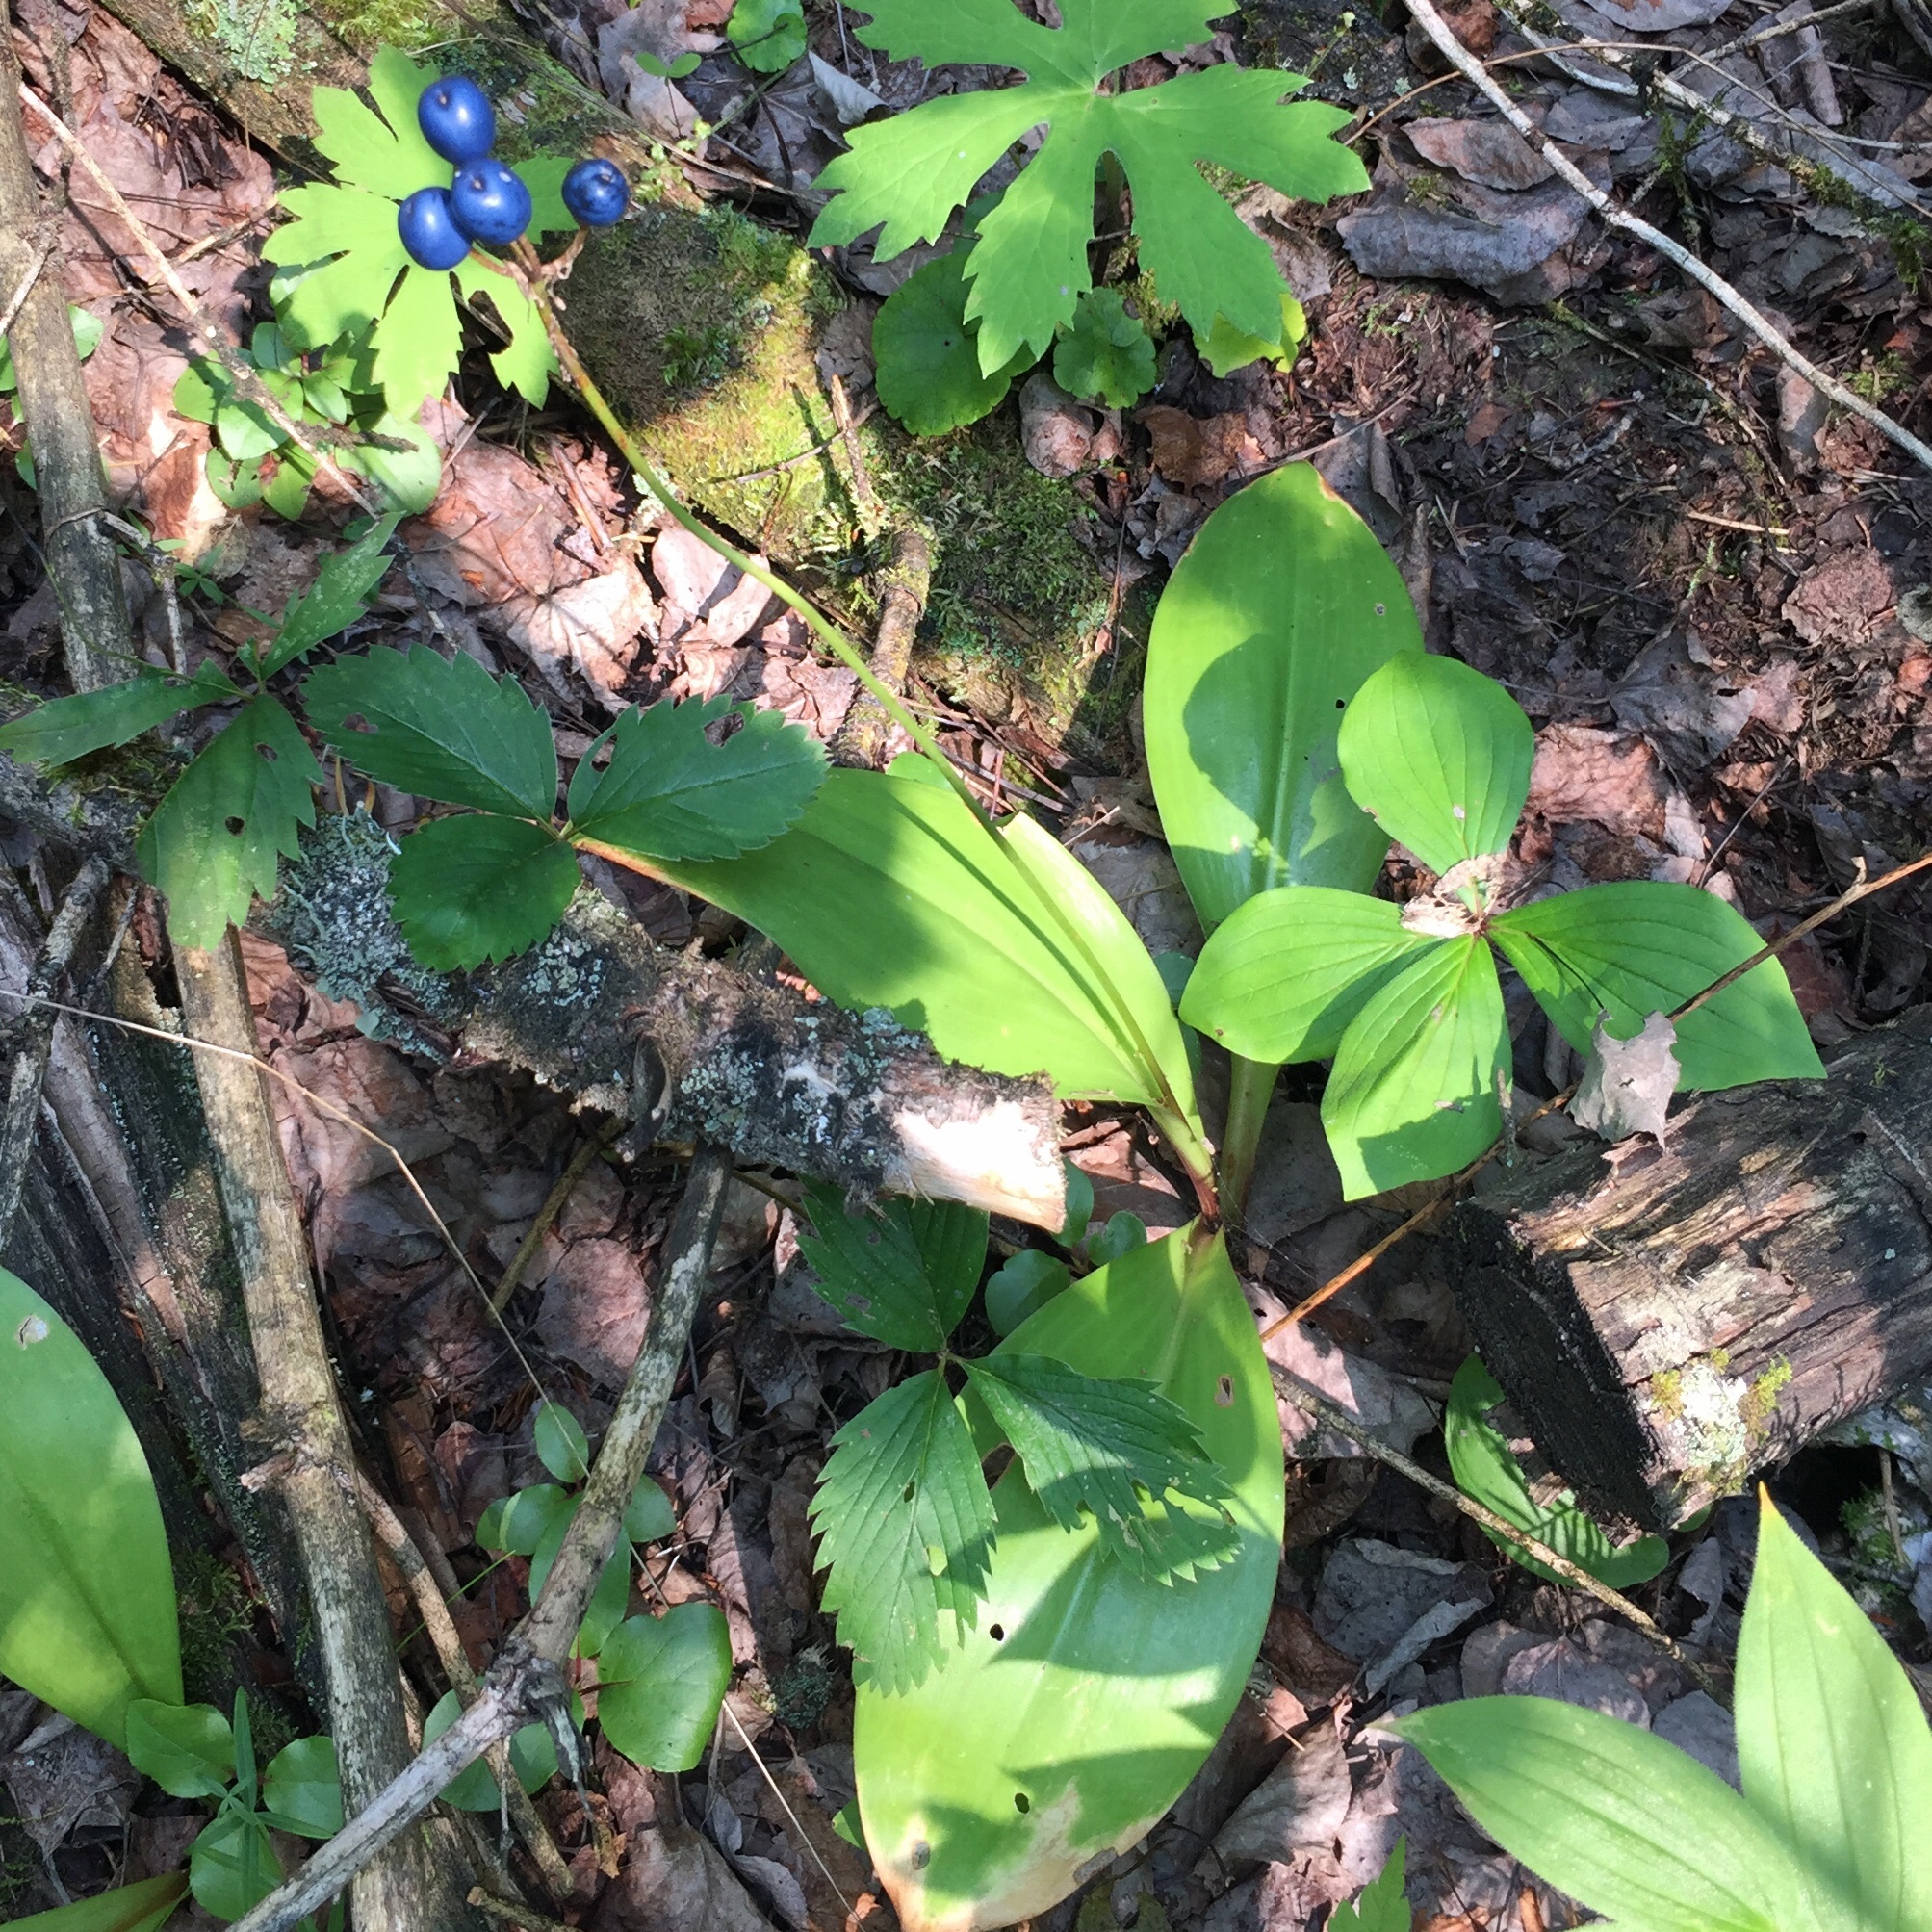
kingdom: Plantae
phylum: Tracheophyta
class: Liliopsida
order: Liliales
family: Liliaceae
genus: Clintonia
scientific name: Clintonia borealis
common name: Yellow clintonia
